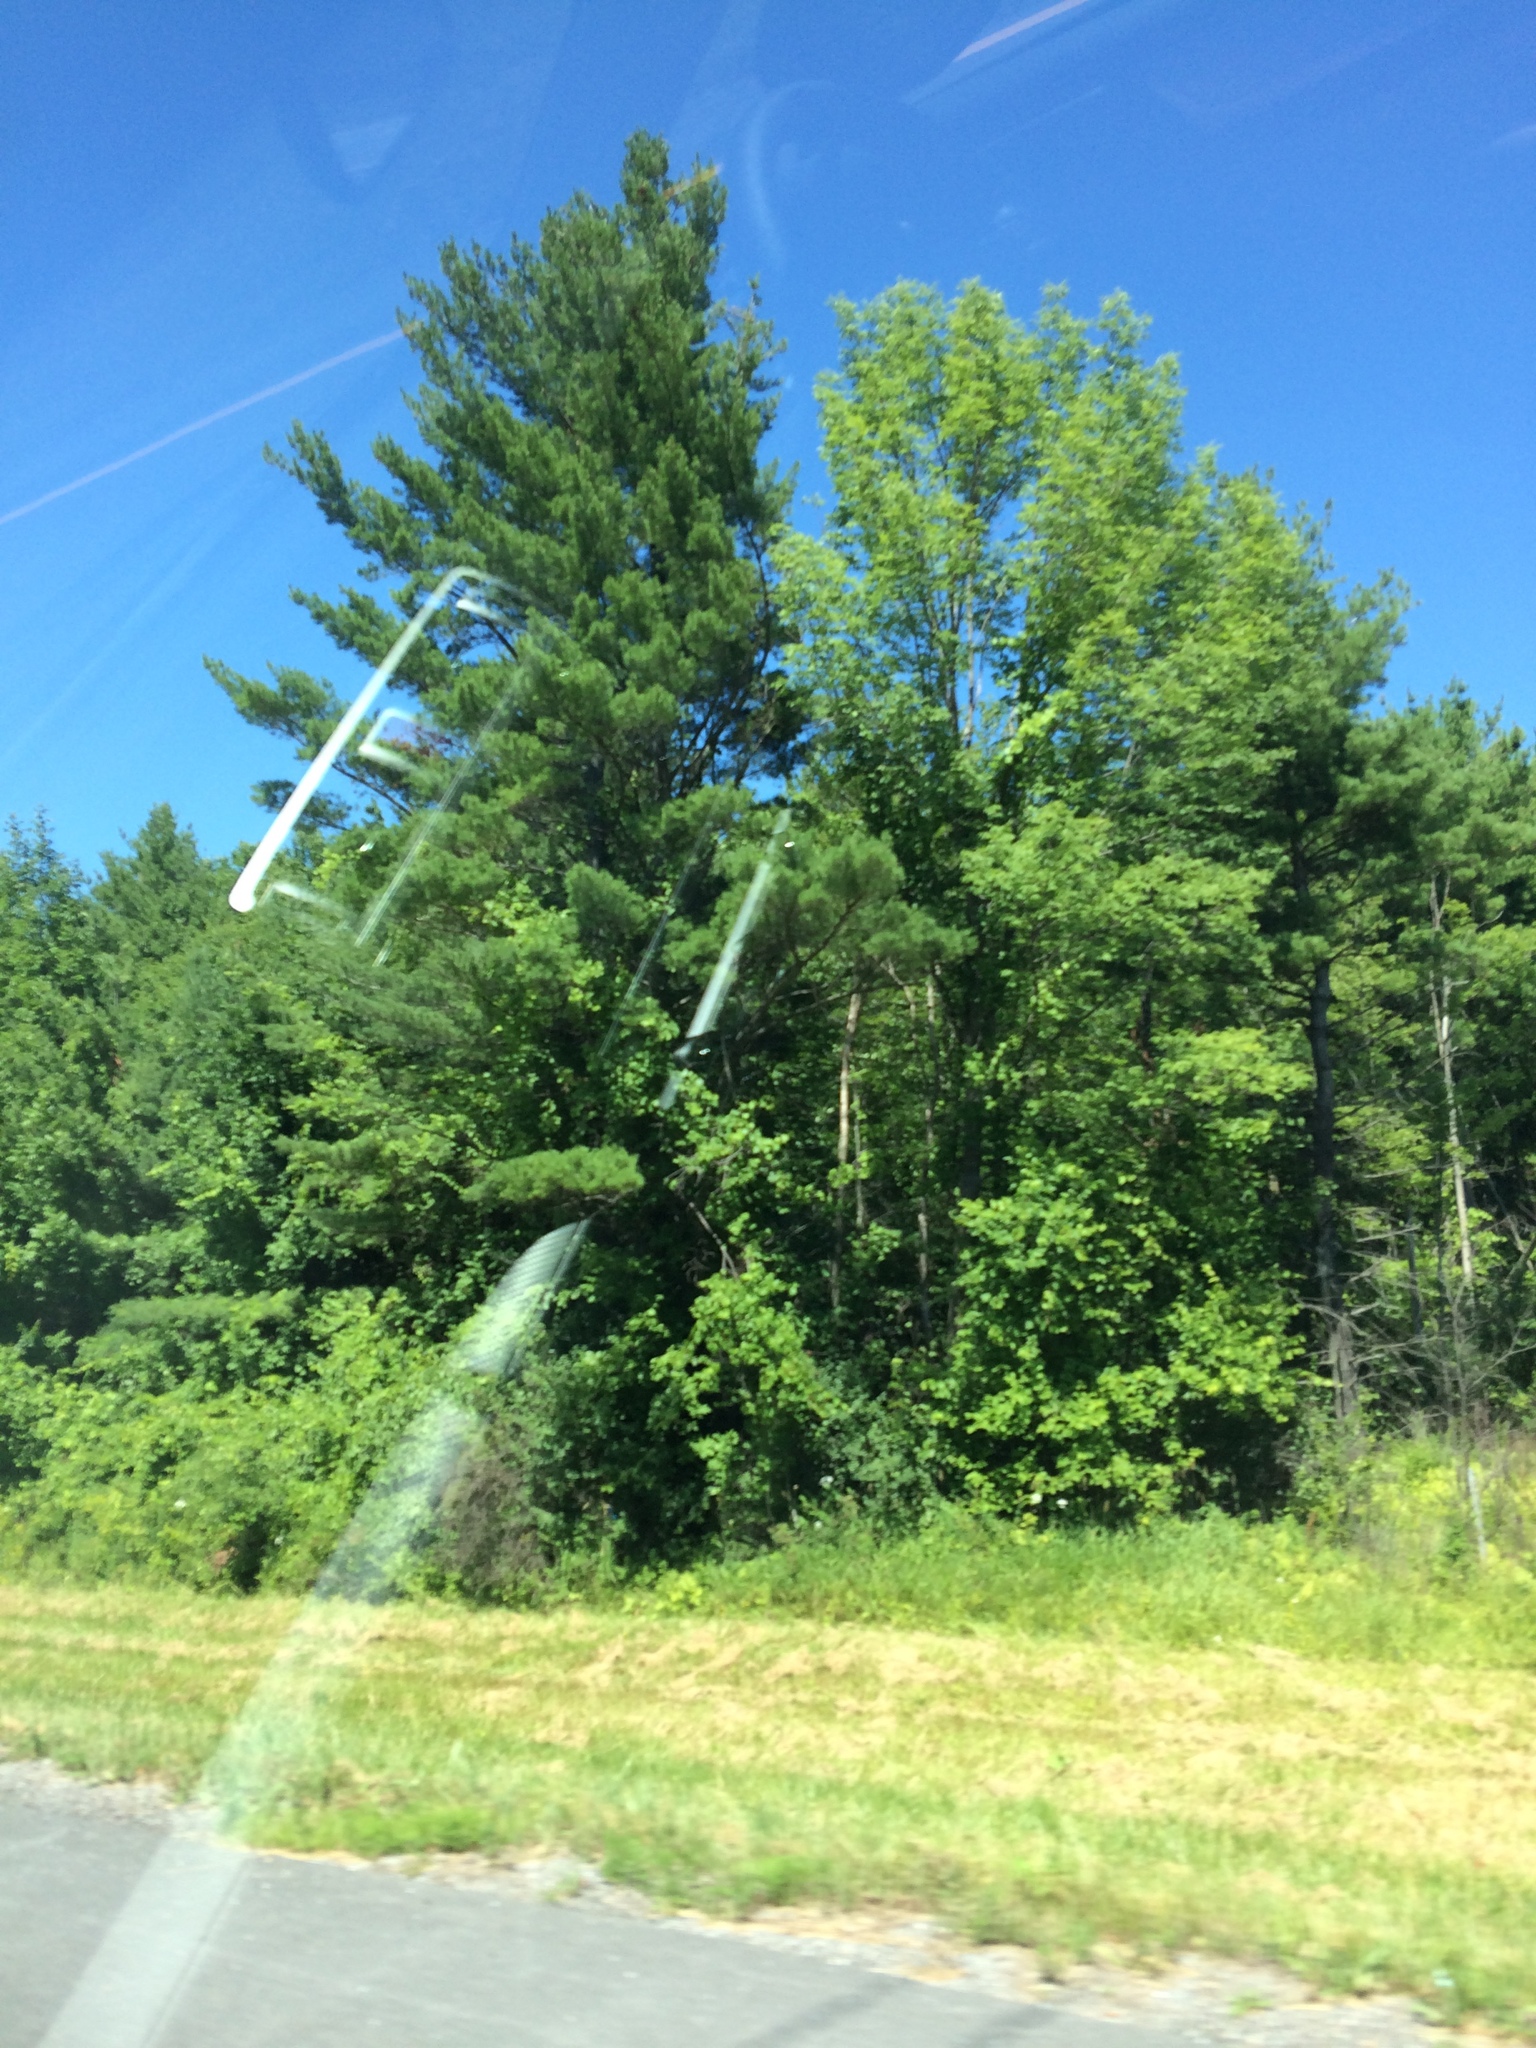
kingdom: Plantae
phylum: Tracheophyta
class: Pinopsida
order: Pinales
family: Pinaceae
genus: Pinus
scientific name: Pinus strobus
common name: Weymouth pine
